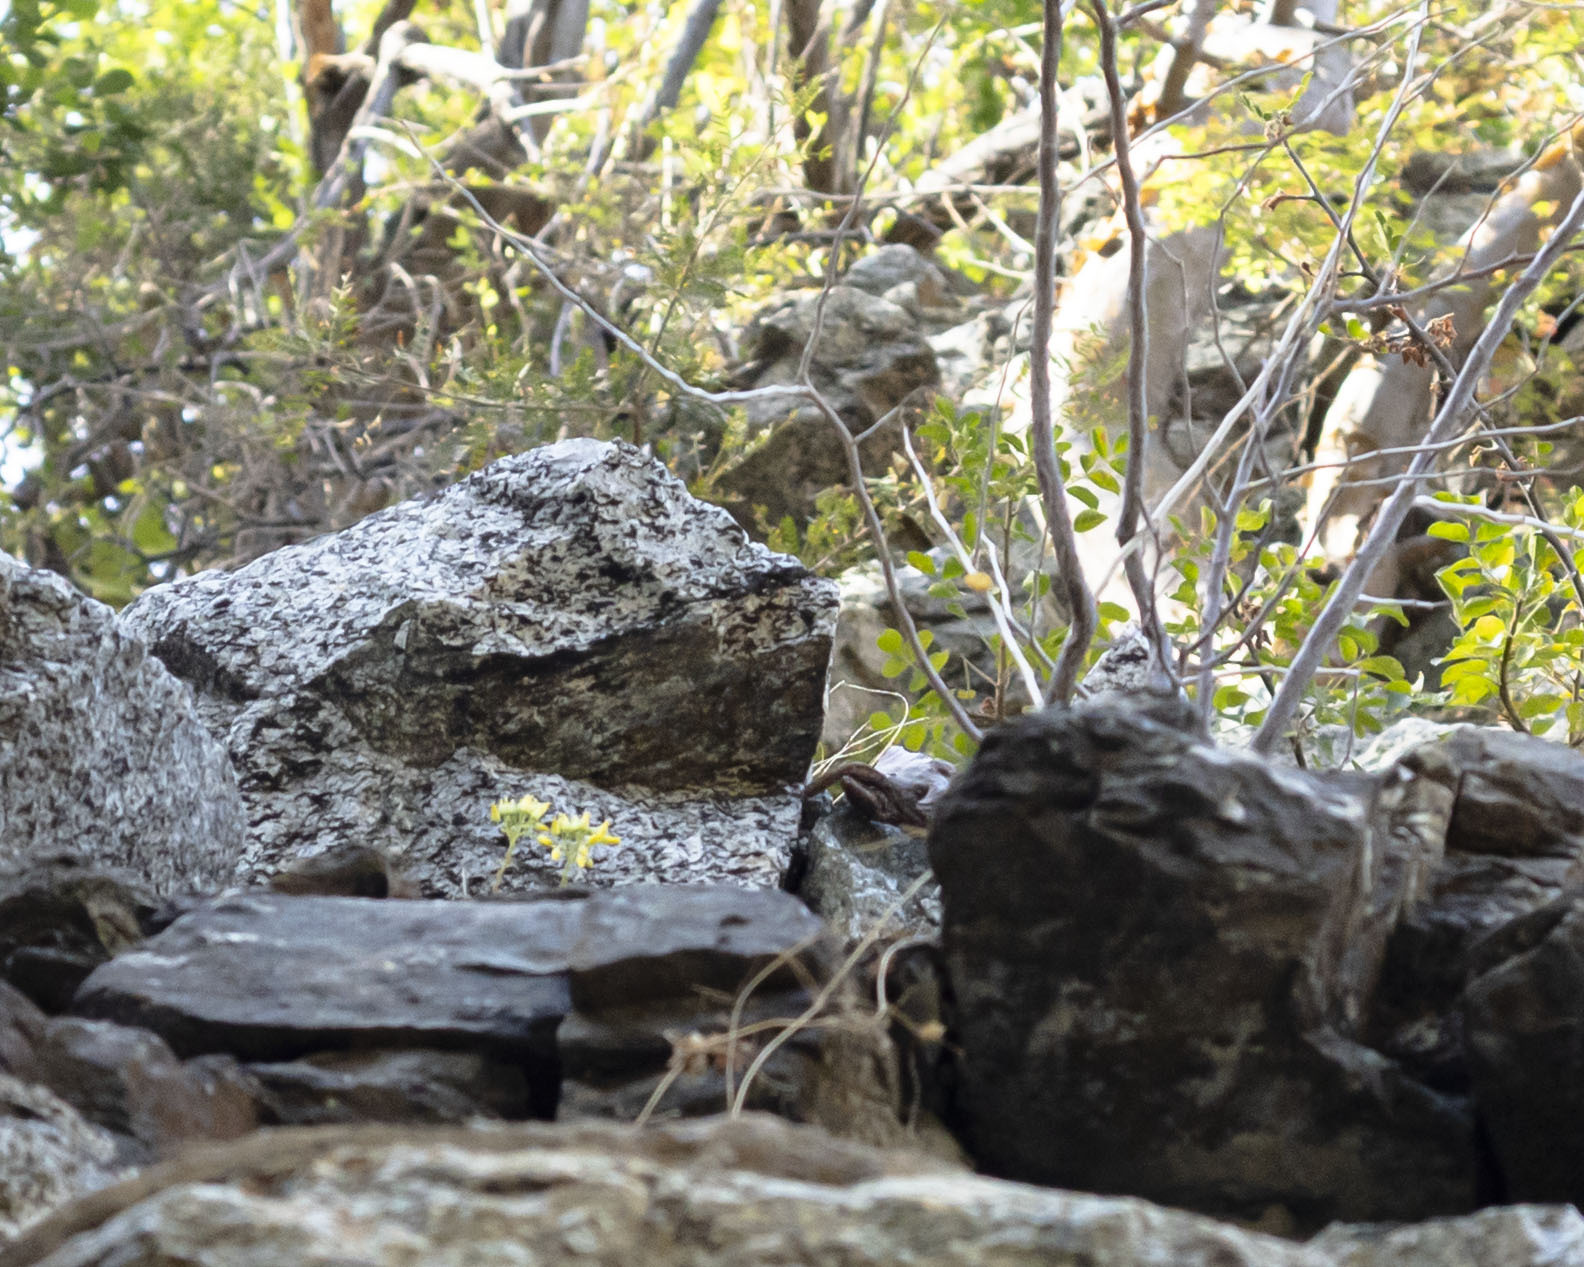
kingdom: Plantae
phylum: Tracheophyta
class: Magnoliopsida
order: Saxifragales
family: Crassulaceae
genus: Dudleya
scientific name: Dudleya nubigena
